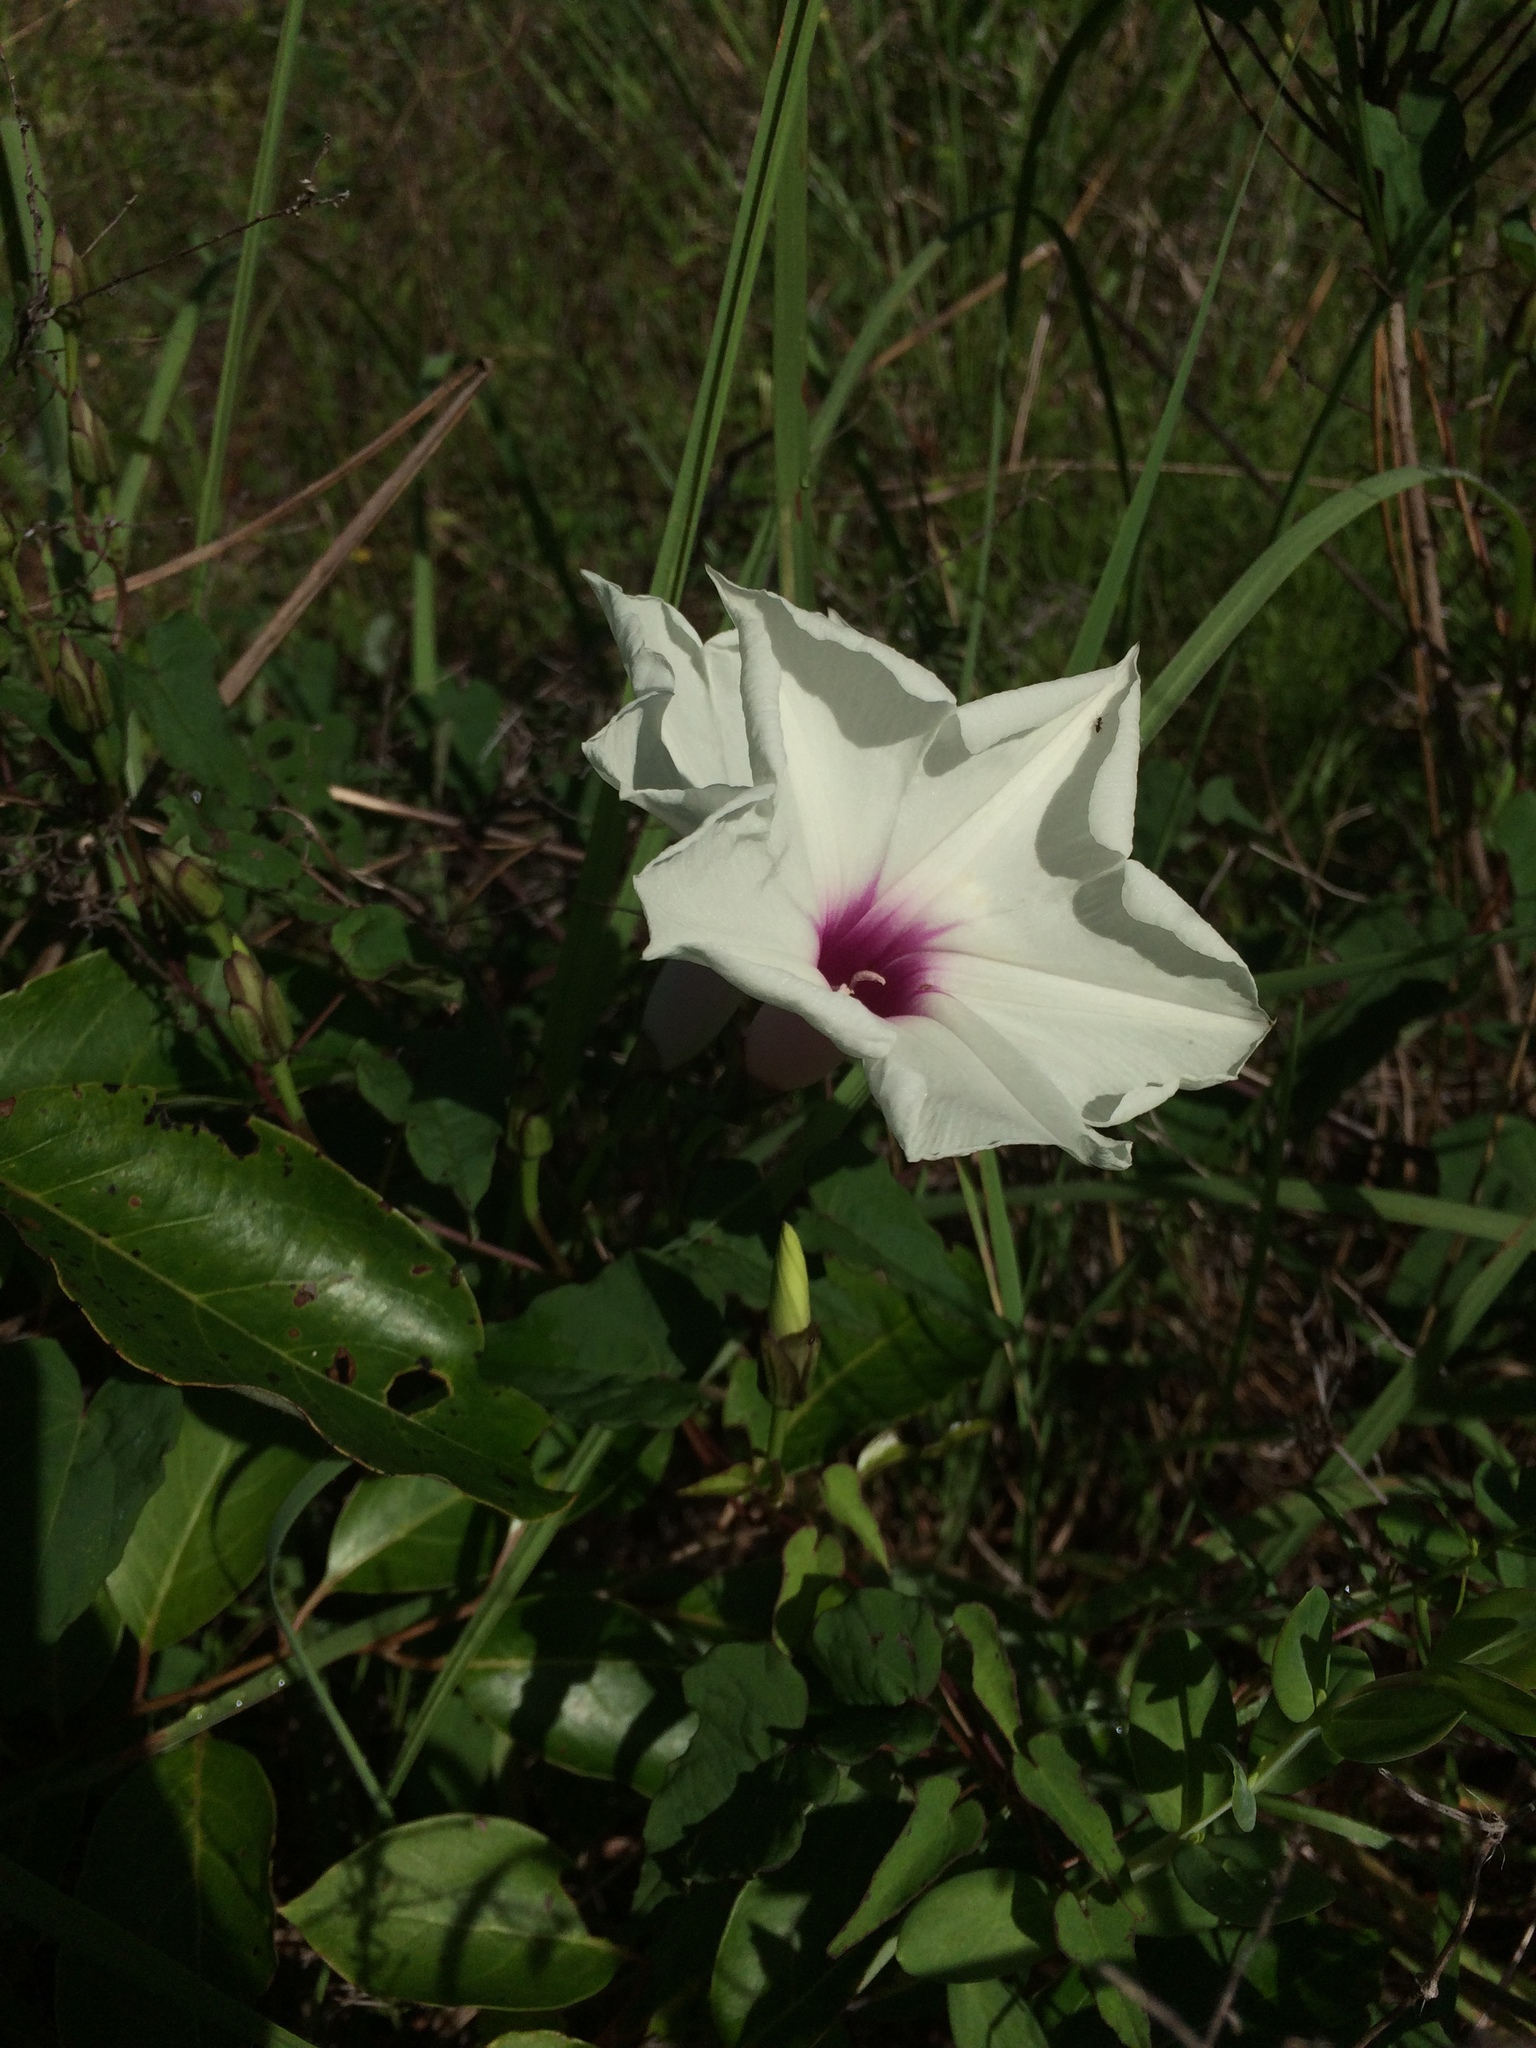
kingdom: Plantae
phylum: Tracheophyta
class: Magnoliopsida
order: Solanales
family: Convolvulaceae
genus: Ipomoea
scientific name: Ipomoea pandurata
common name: Man-of-the-earth
